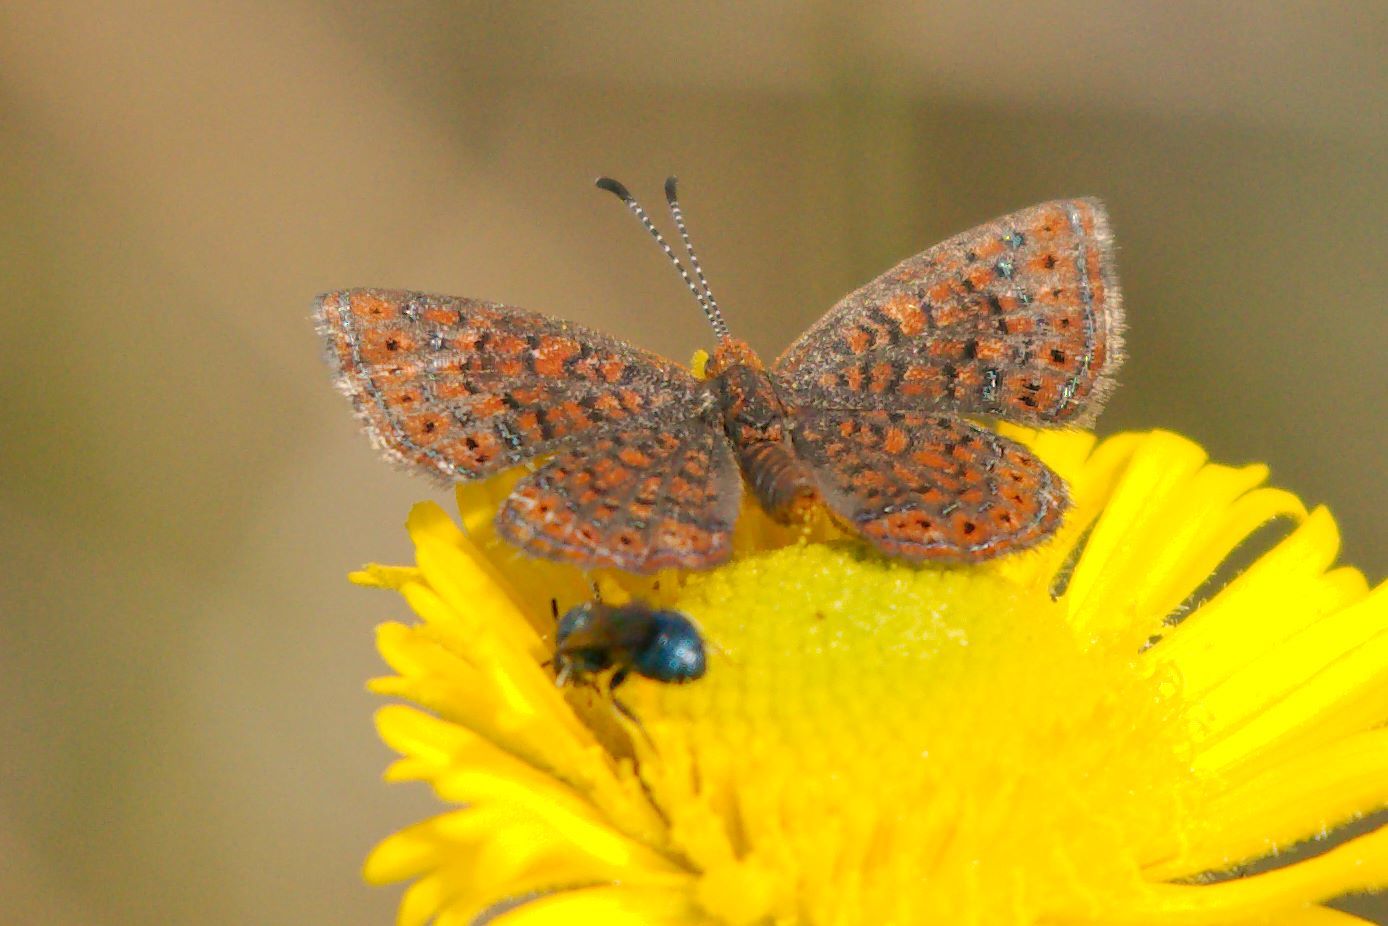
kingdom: Animalia
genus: Calephelis
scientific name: Calephelis virginiensis
